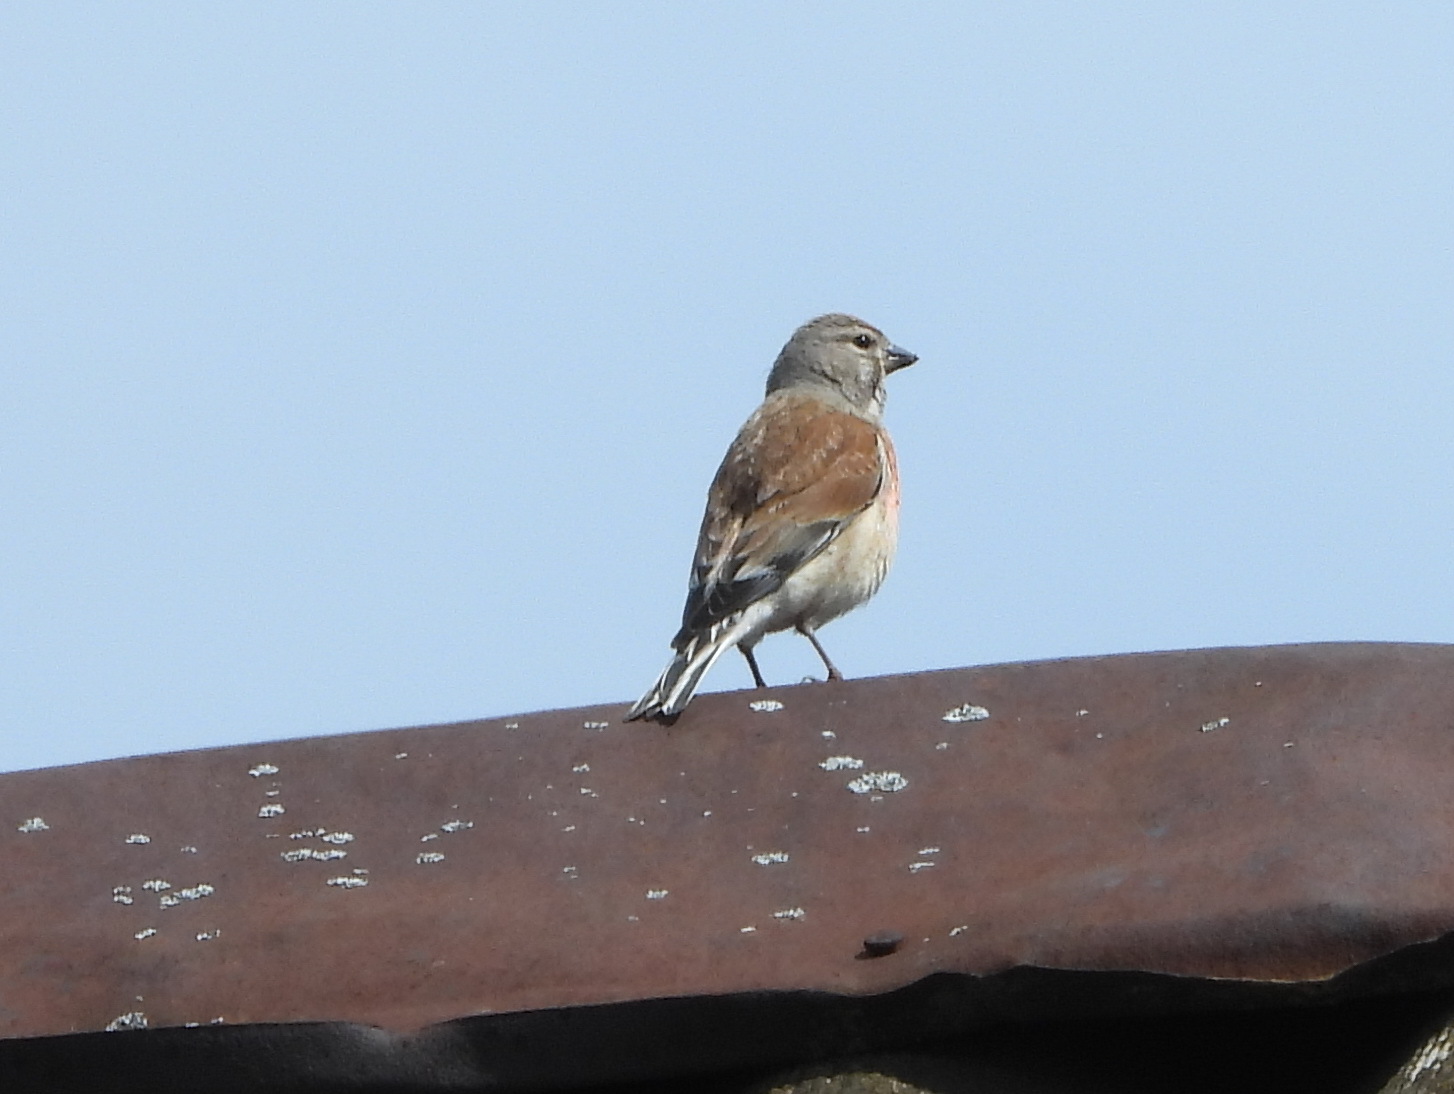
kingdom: Animalia
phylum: Chordata
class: Aves
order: Passeriformes
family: Fringillidae
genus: Linaria
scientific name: Linaria cannabina
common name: Common linnet
